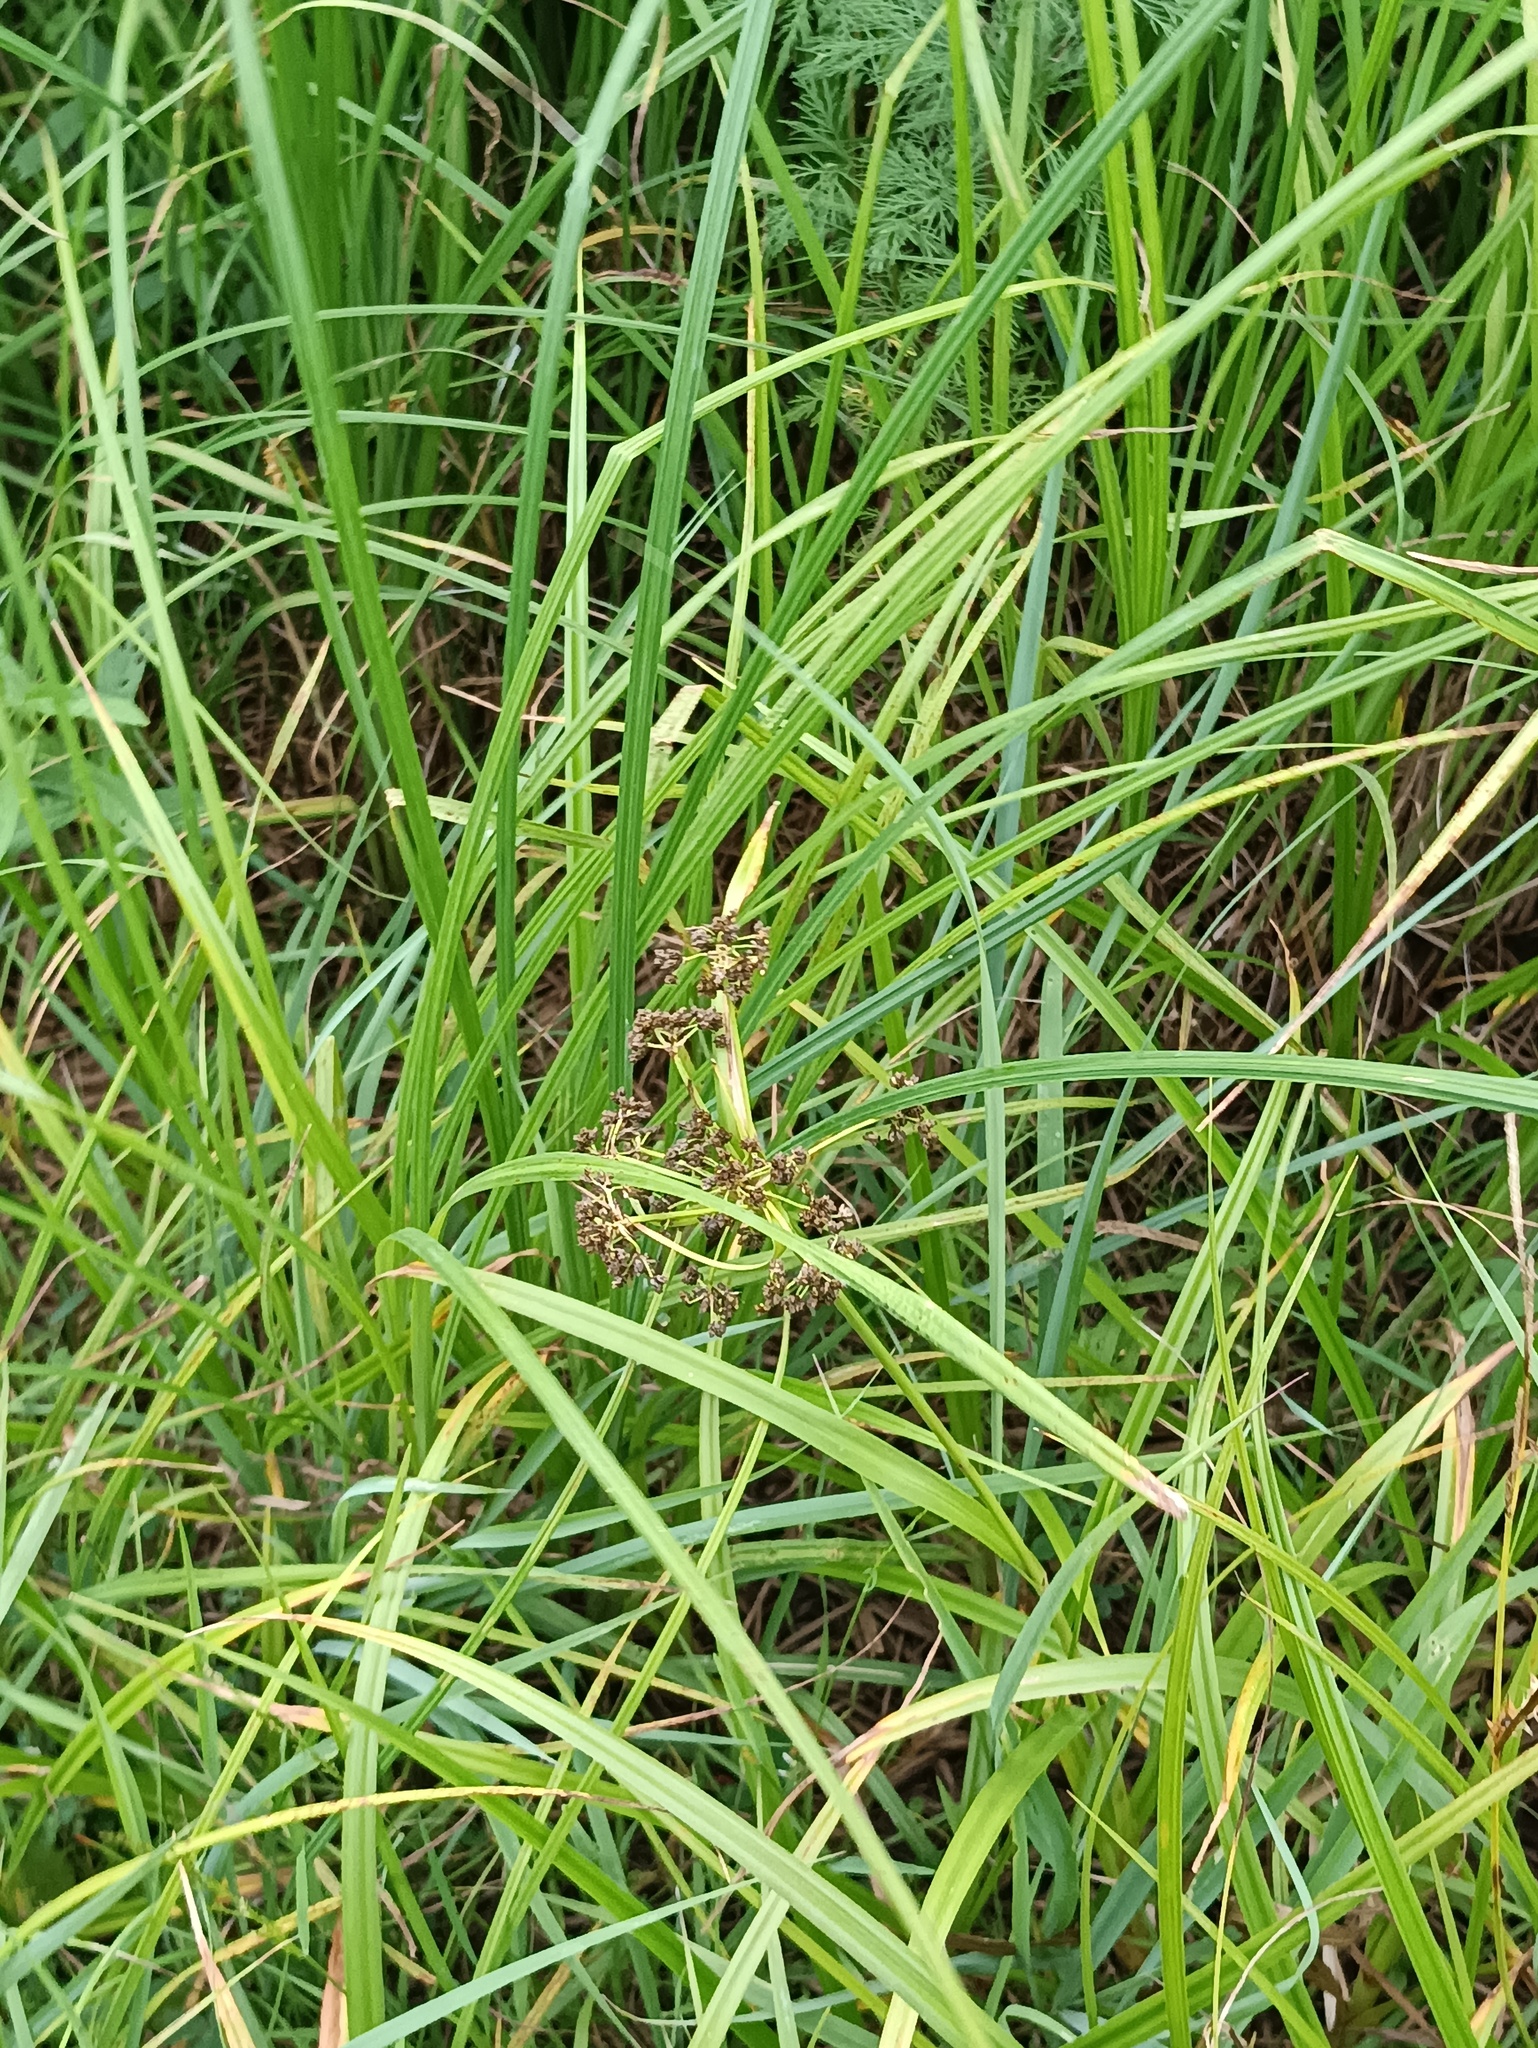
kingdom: Plantae
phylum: Tracheophyta
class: Liliopsida
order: Poales
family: Cyperaceae
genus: Scirpus
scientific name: Scirpus sylvaticus
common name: Wood club-rush
